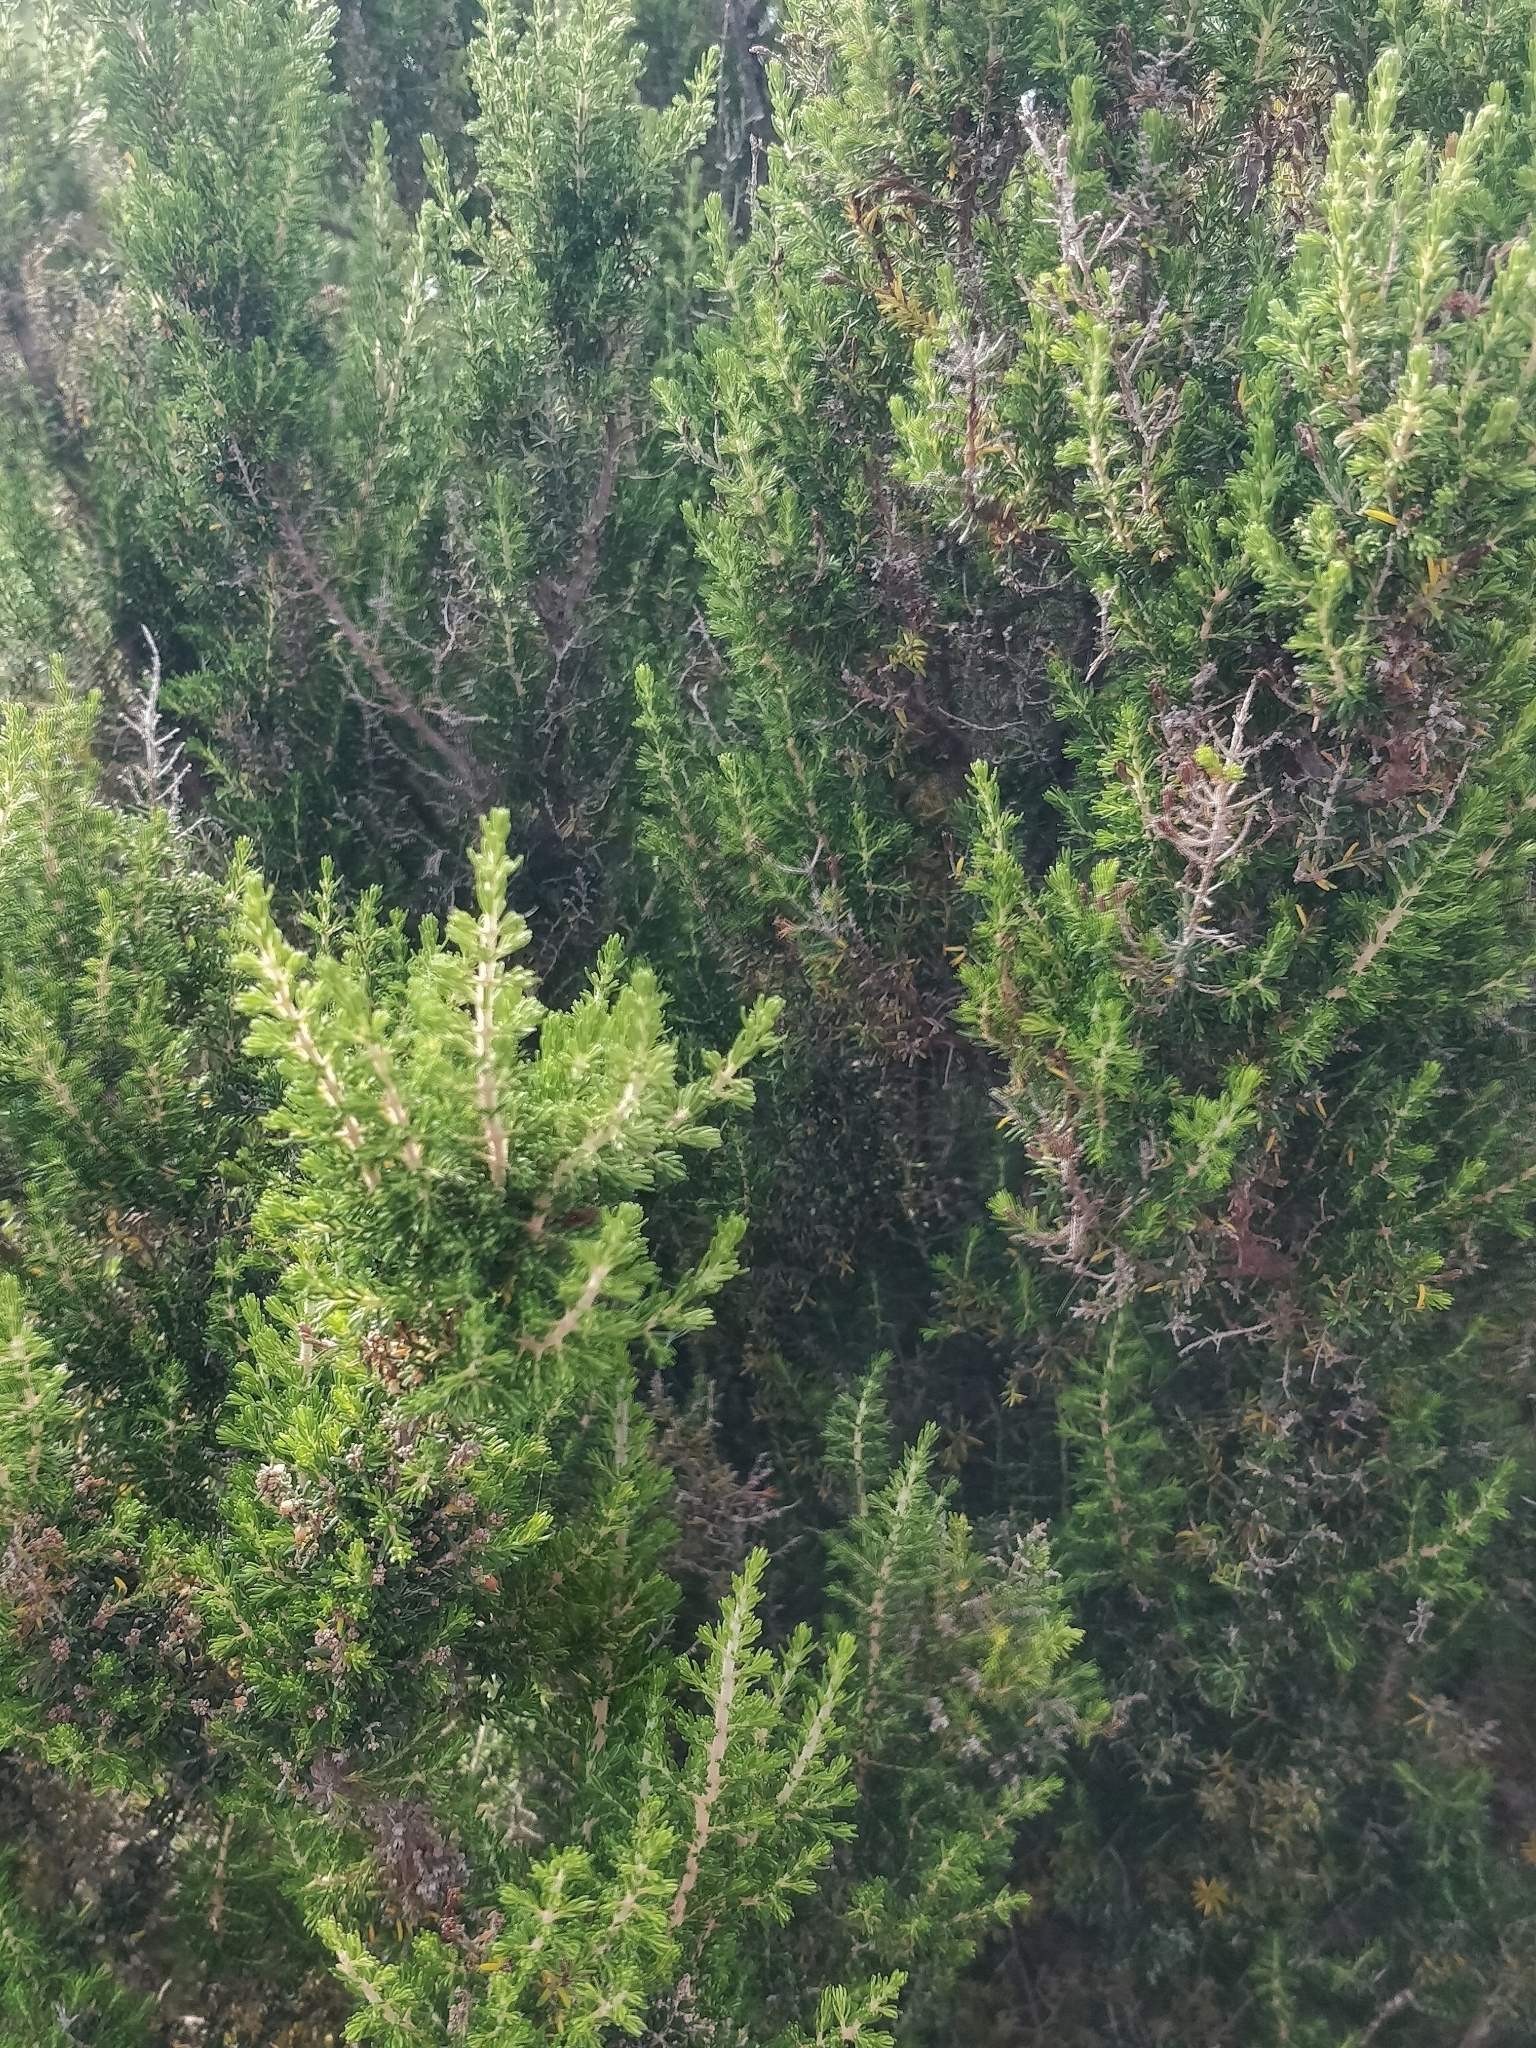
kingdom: Plantae
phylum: Tracheophyta
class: Magnoliopsida
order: Ericales
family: Ericaceae
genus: Erica
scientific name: Erica canariensis
